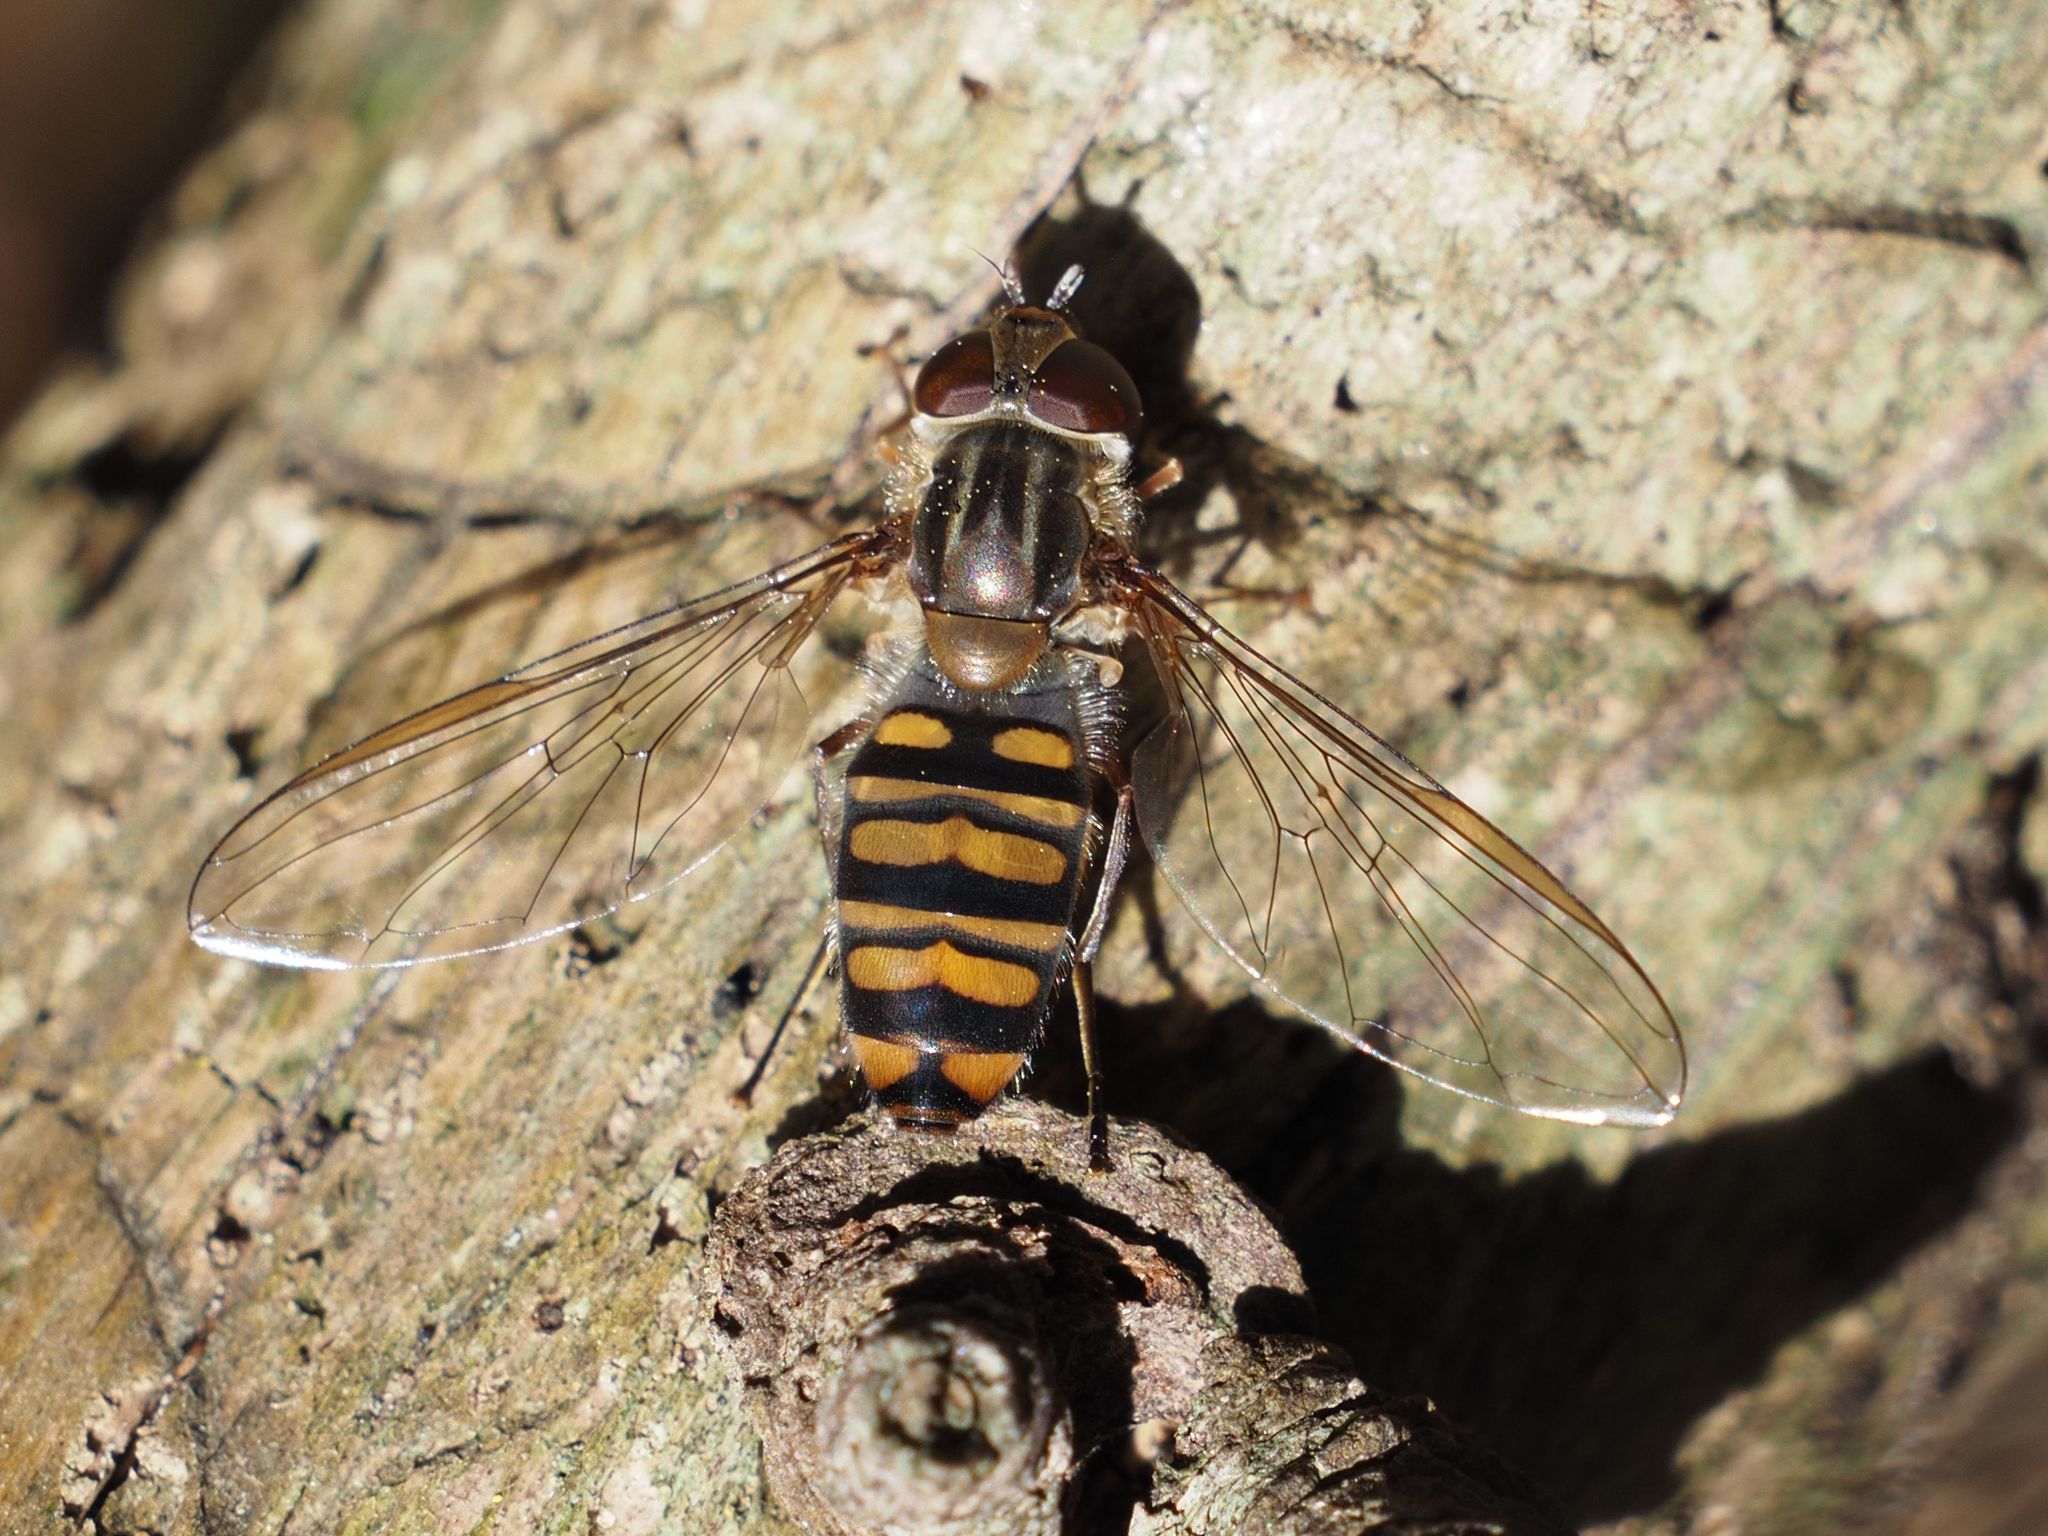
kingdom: Animalia
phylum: Arthropoda
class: Insecta
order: Diptera
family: Syrphidae
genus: Episyrphus
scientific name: Episyrphus balteatus
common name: Marmalade hoverfly
